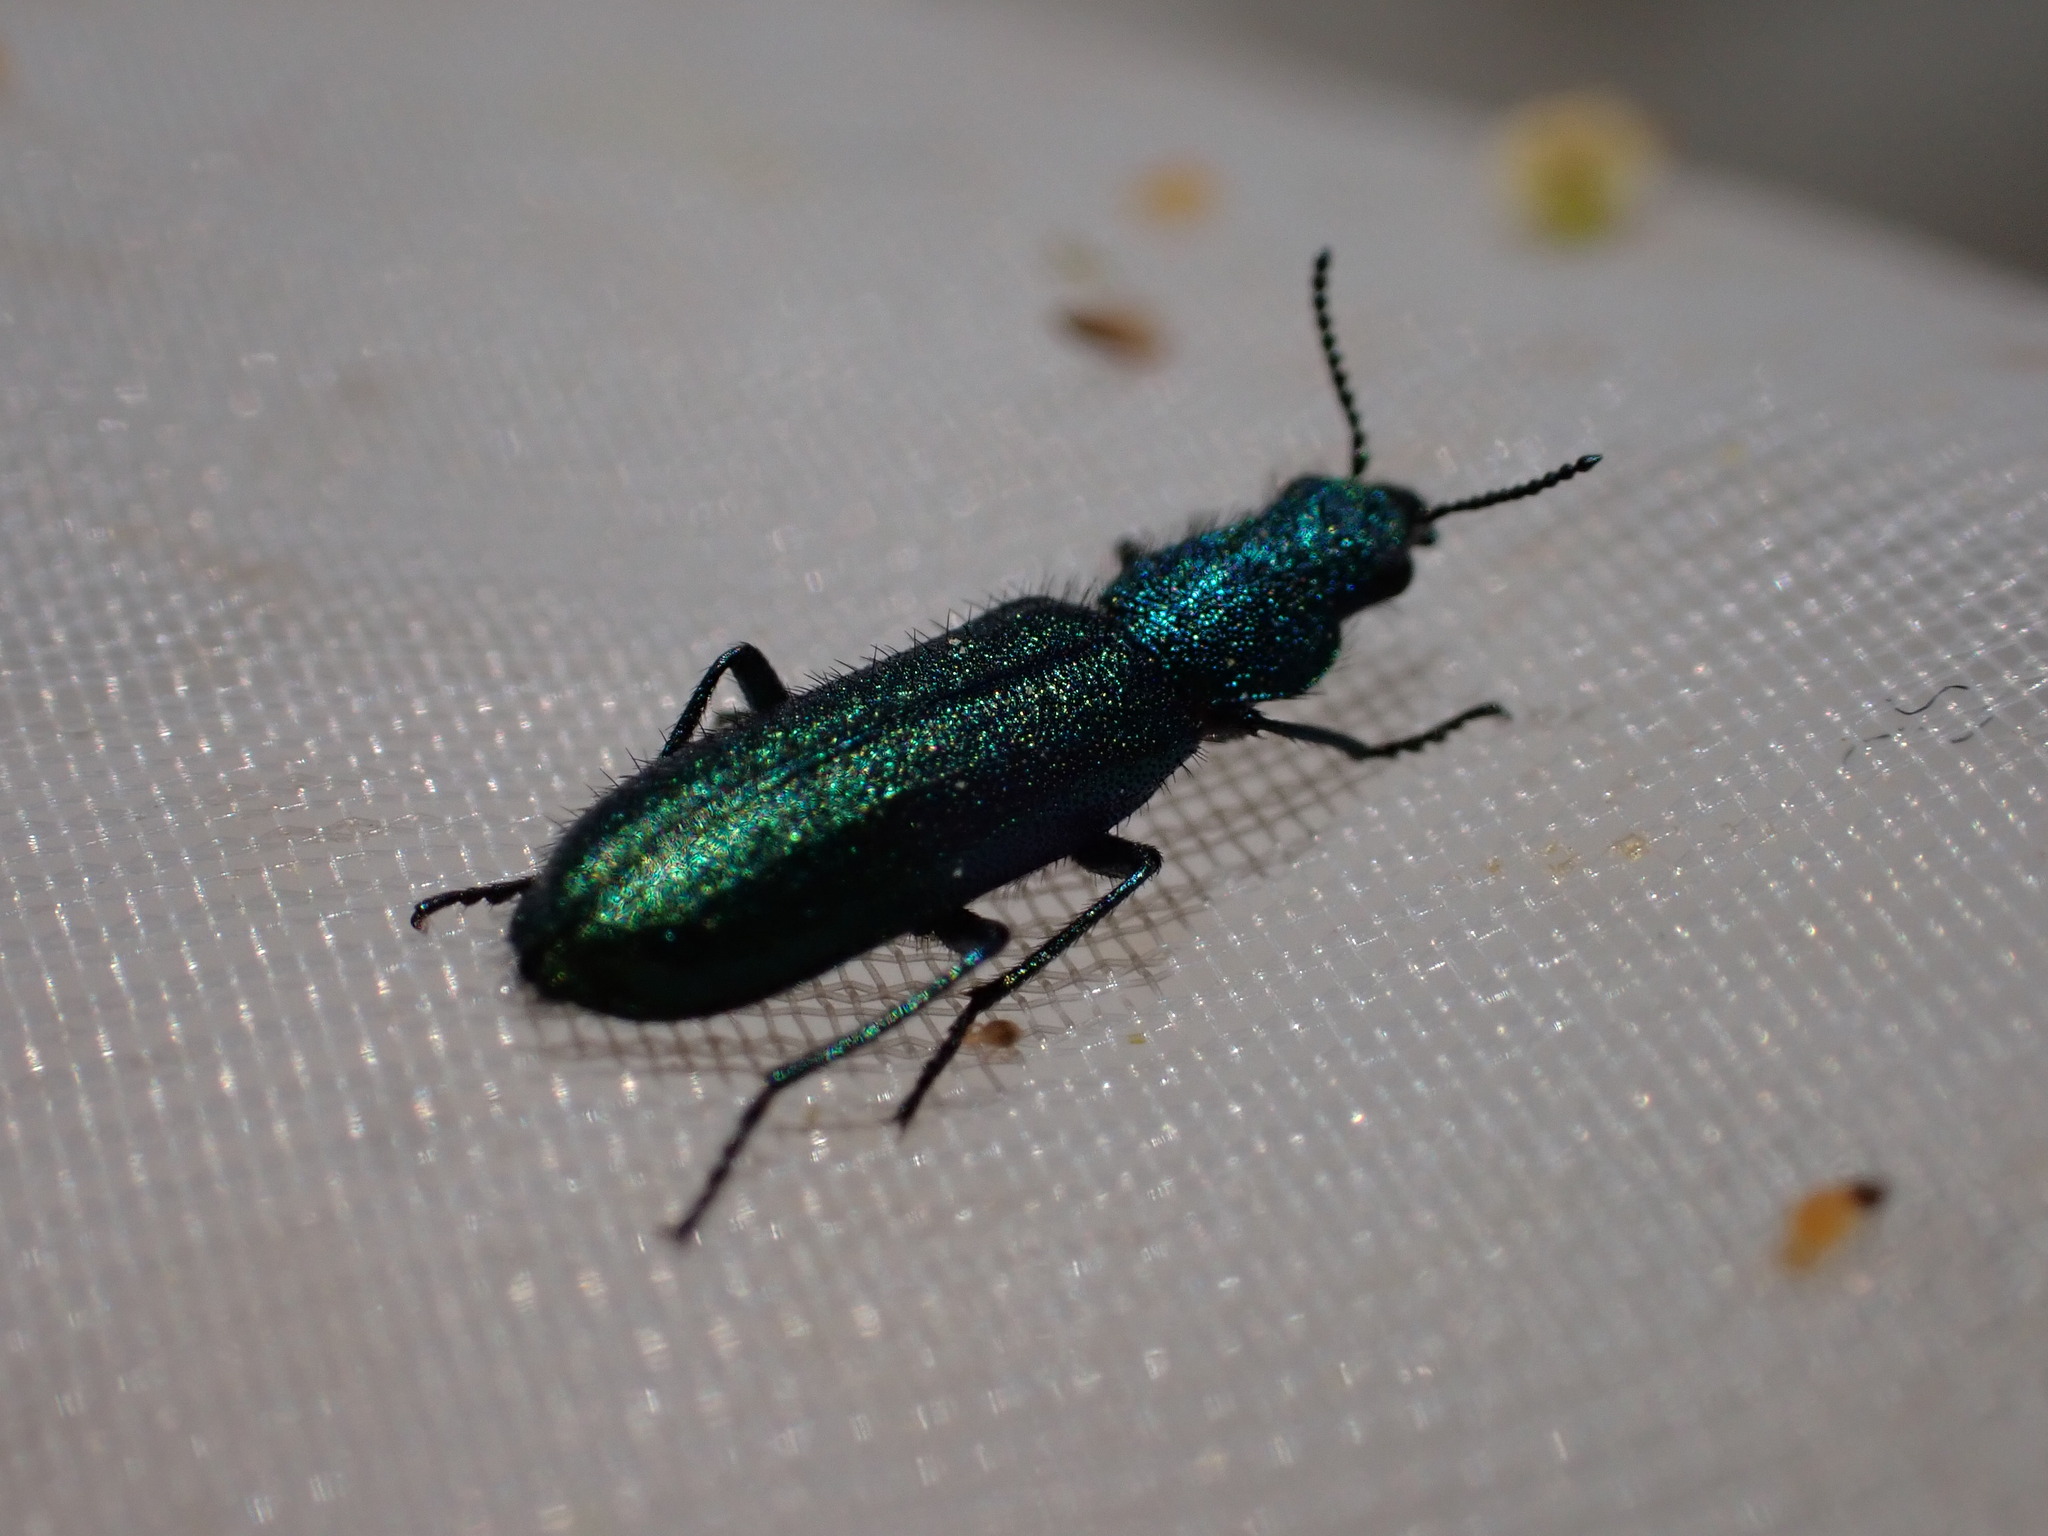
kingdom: Animalia
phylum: Arthropoda
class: Insecta
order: Coleoptera
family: Dasytidae
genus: Psilothrix
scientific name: Psilothrix viridicoerulea
